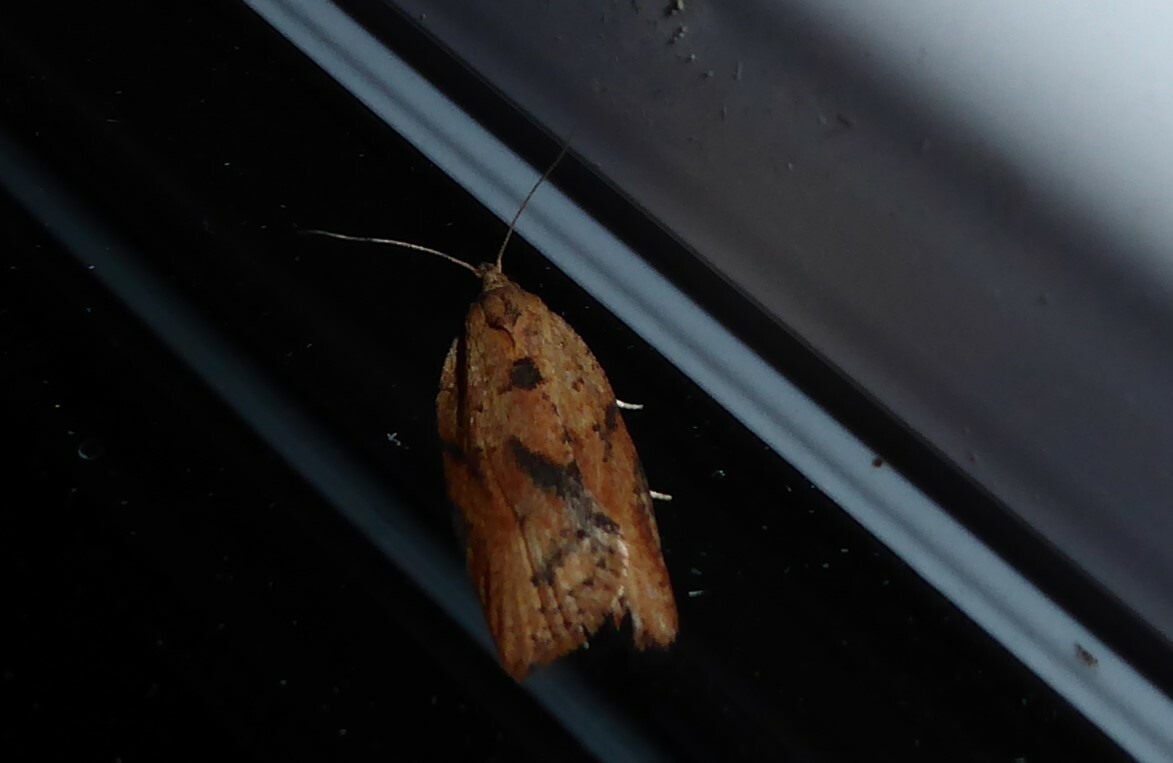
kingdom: Animalia
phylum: Arthropoda
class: Insecta
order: Lepidoptera
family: Tortricidae
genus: Epiphyas
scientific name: Epiphyas postvittana
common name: Light brown apple moth
